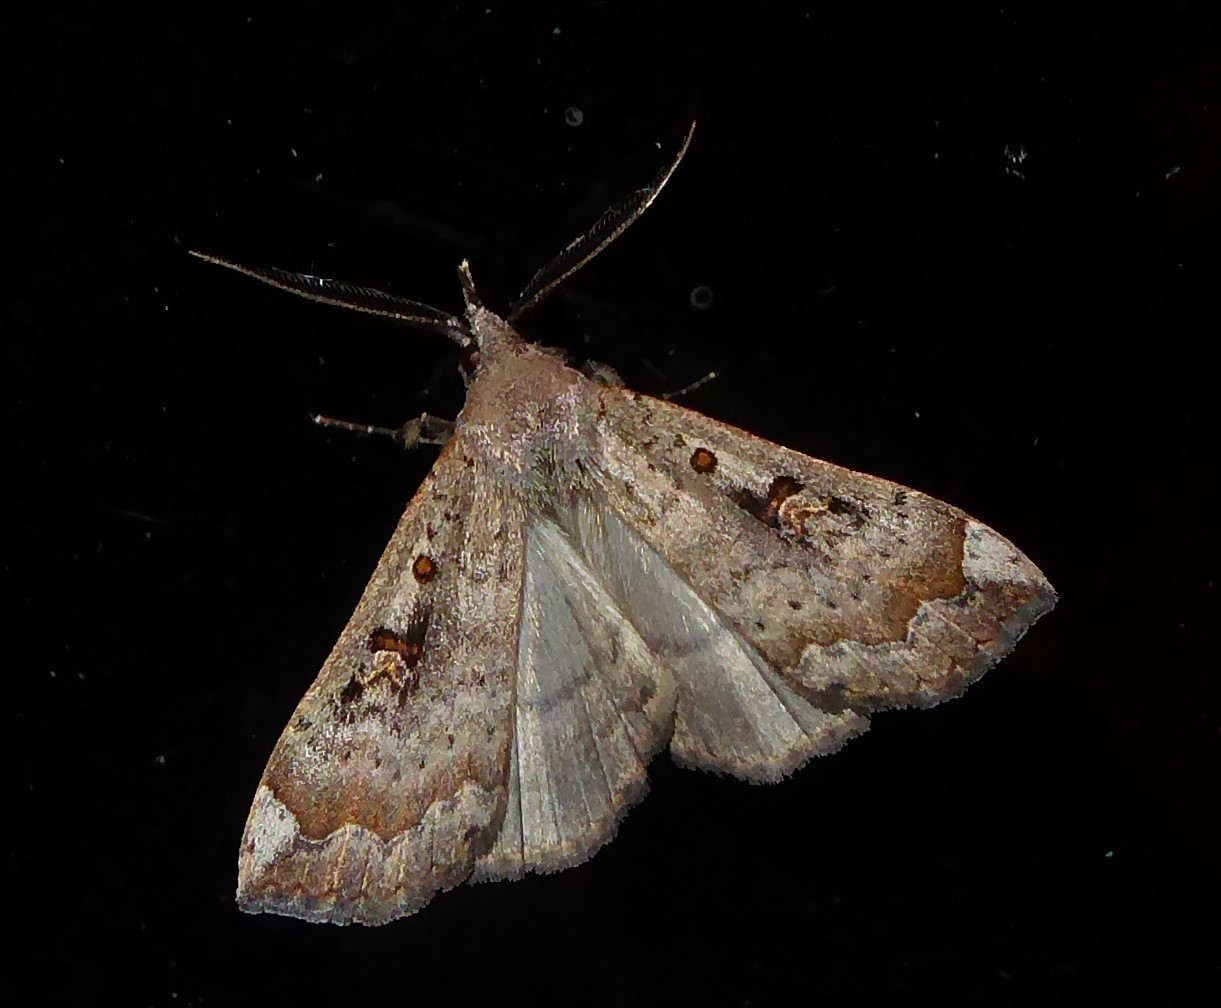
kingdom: Animalia
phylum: Arthropoda
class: Insecta
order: Lepidoptera
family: Erebidae
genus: Rhapsa
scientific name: Rhapsa scotosialis
